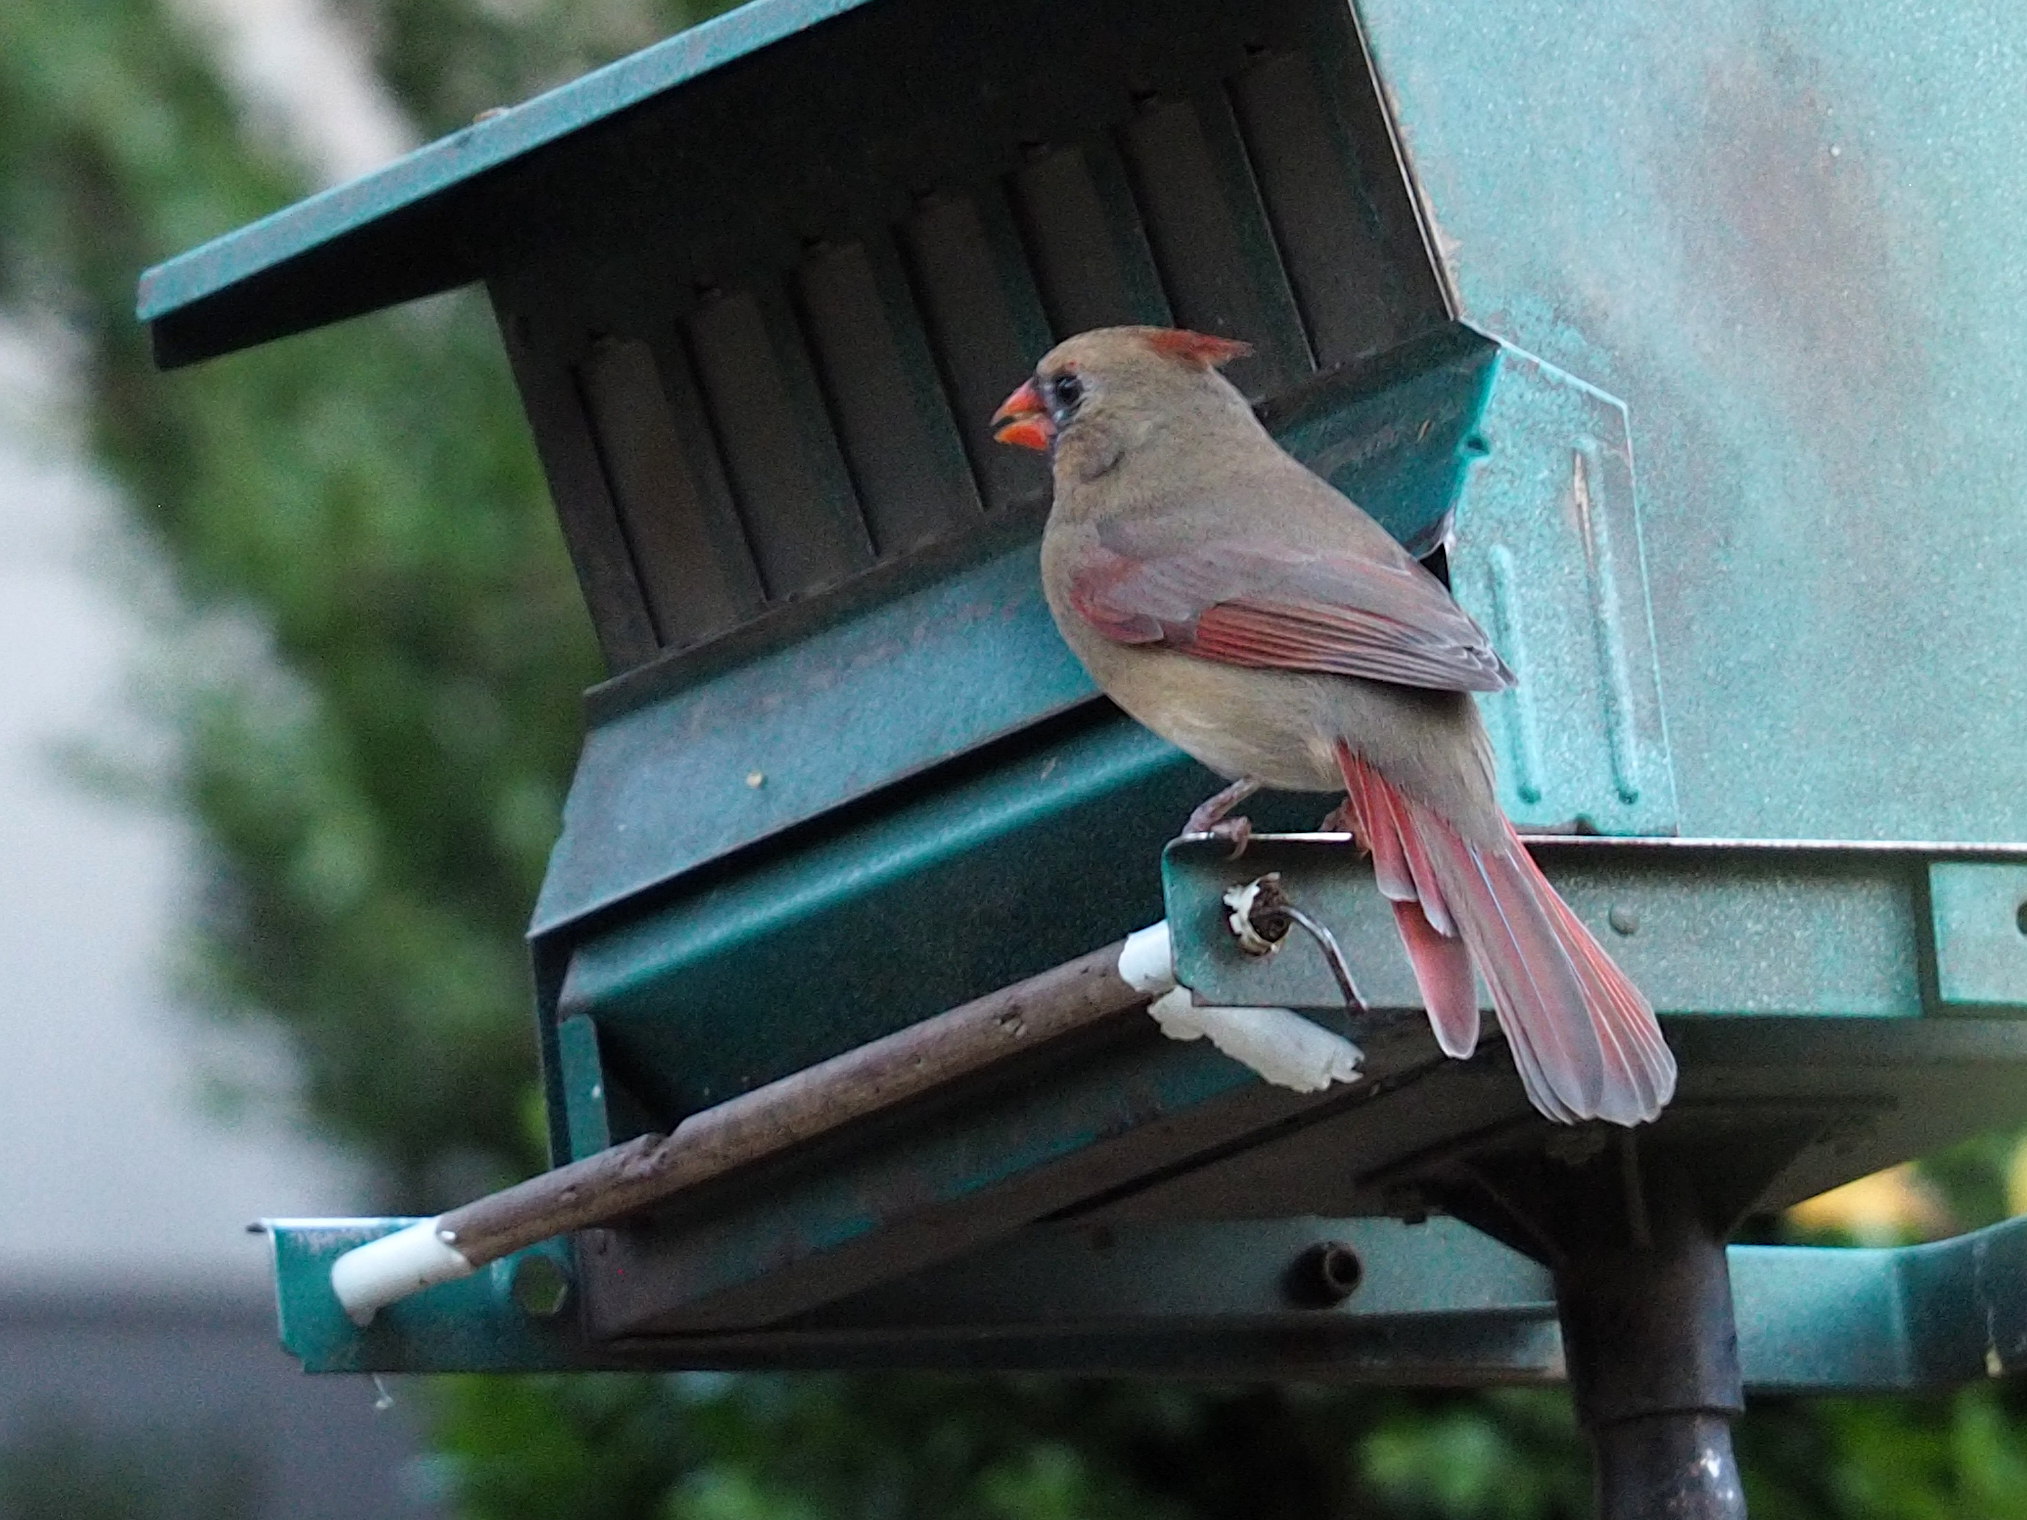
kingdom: Animalia
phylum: Chordata
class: Aves
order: Passeriformes
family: Cardinalidae
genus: Cardinalis
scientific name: Cardinalis cardinalis
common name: Northern cardinal
